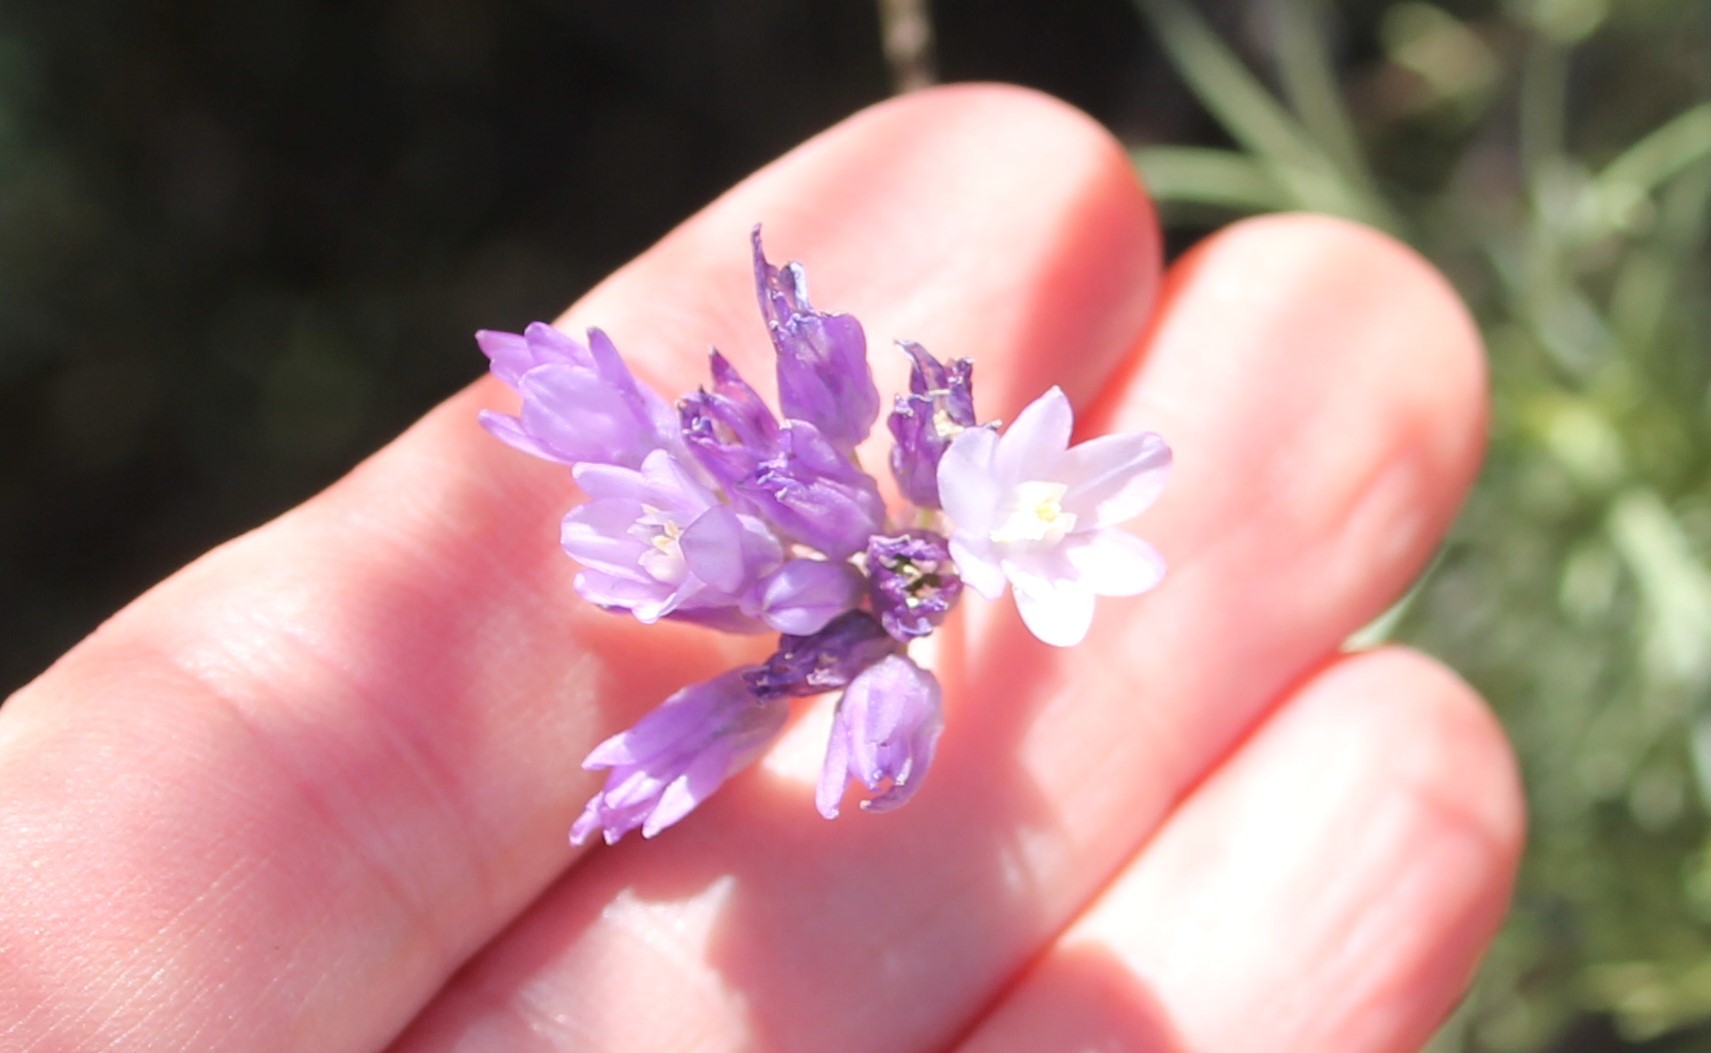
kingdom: Plantae
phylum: Tracheophyta
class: Liliopsida
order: Asparagales
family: Asparagaceae
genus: Dipterostemon
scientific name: Dipterostemon capitatus
